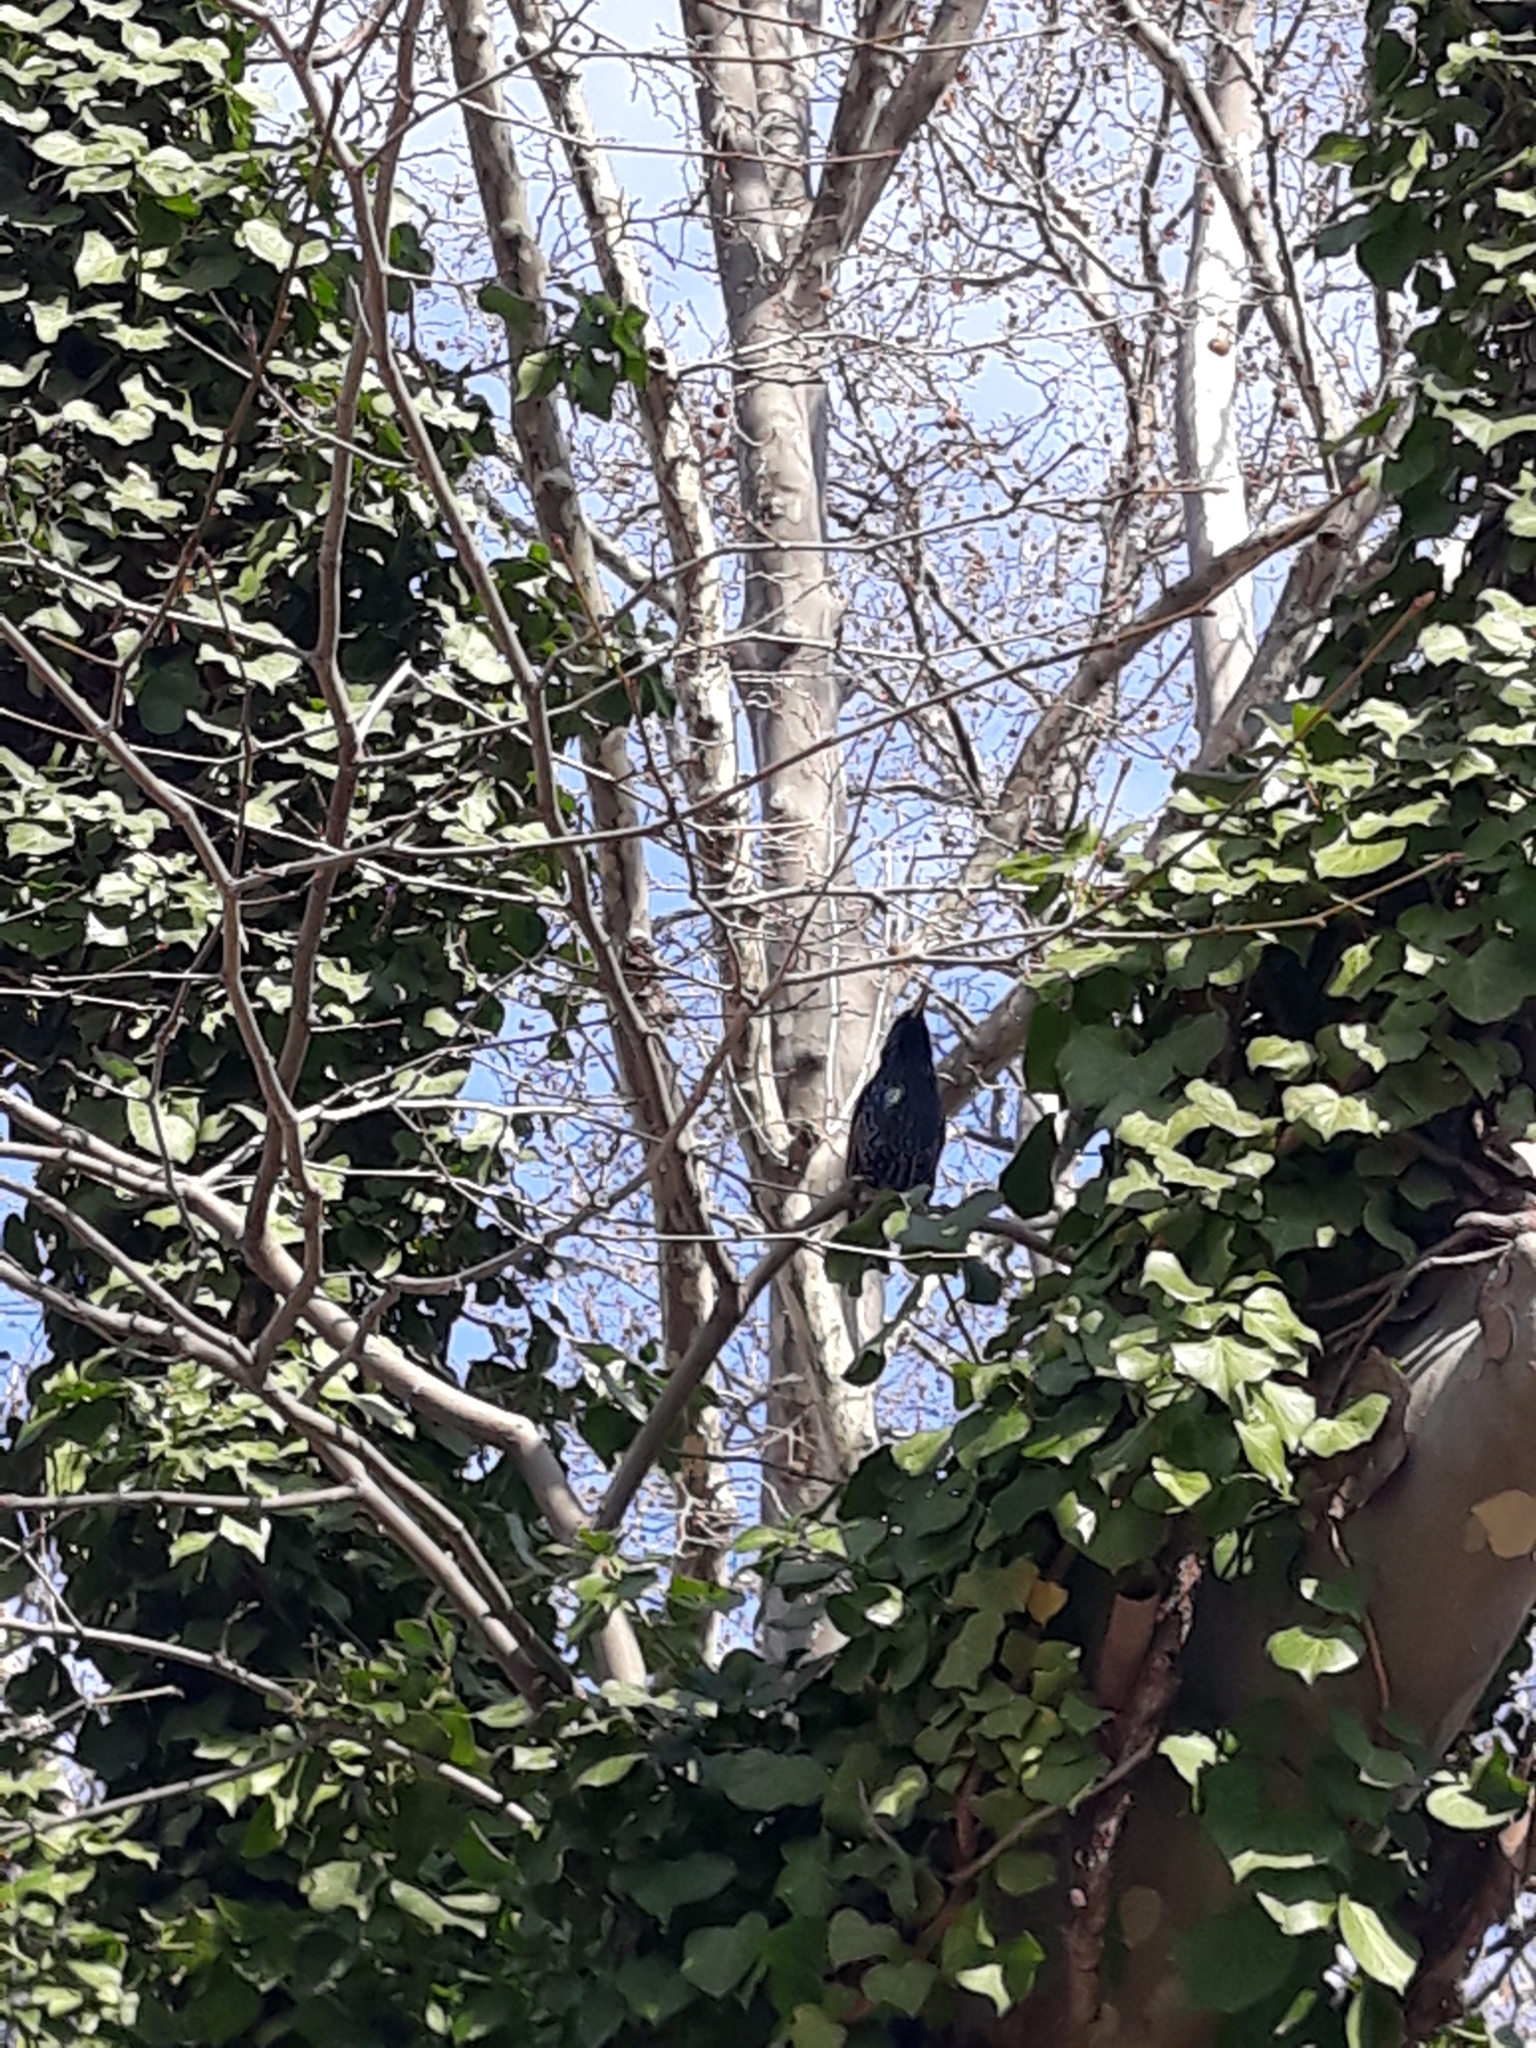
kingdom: Animalia
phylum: Chordata
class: Aves
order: Passeriformes
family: Sturnidae
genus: Sturnus
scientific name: Sturnus vulgaris
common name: Common starling
